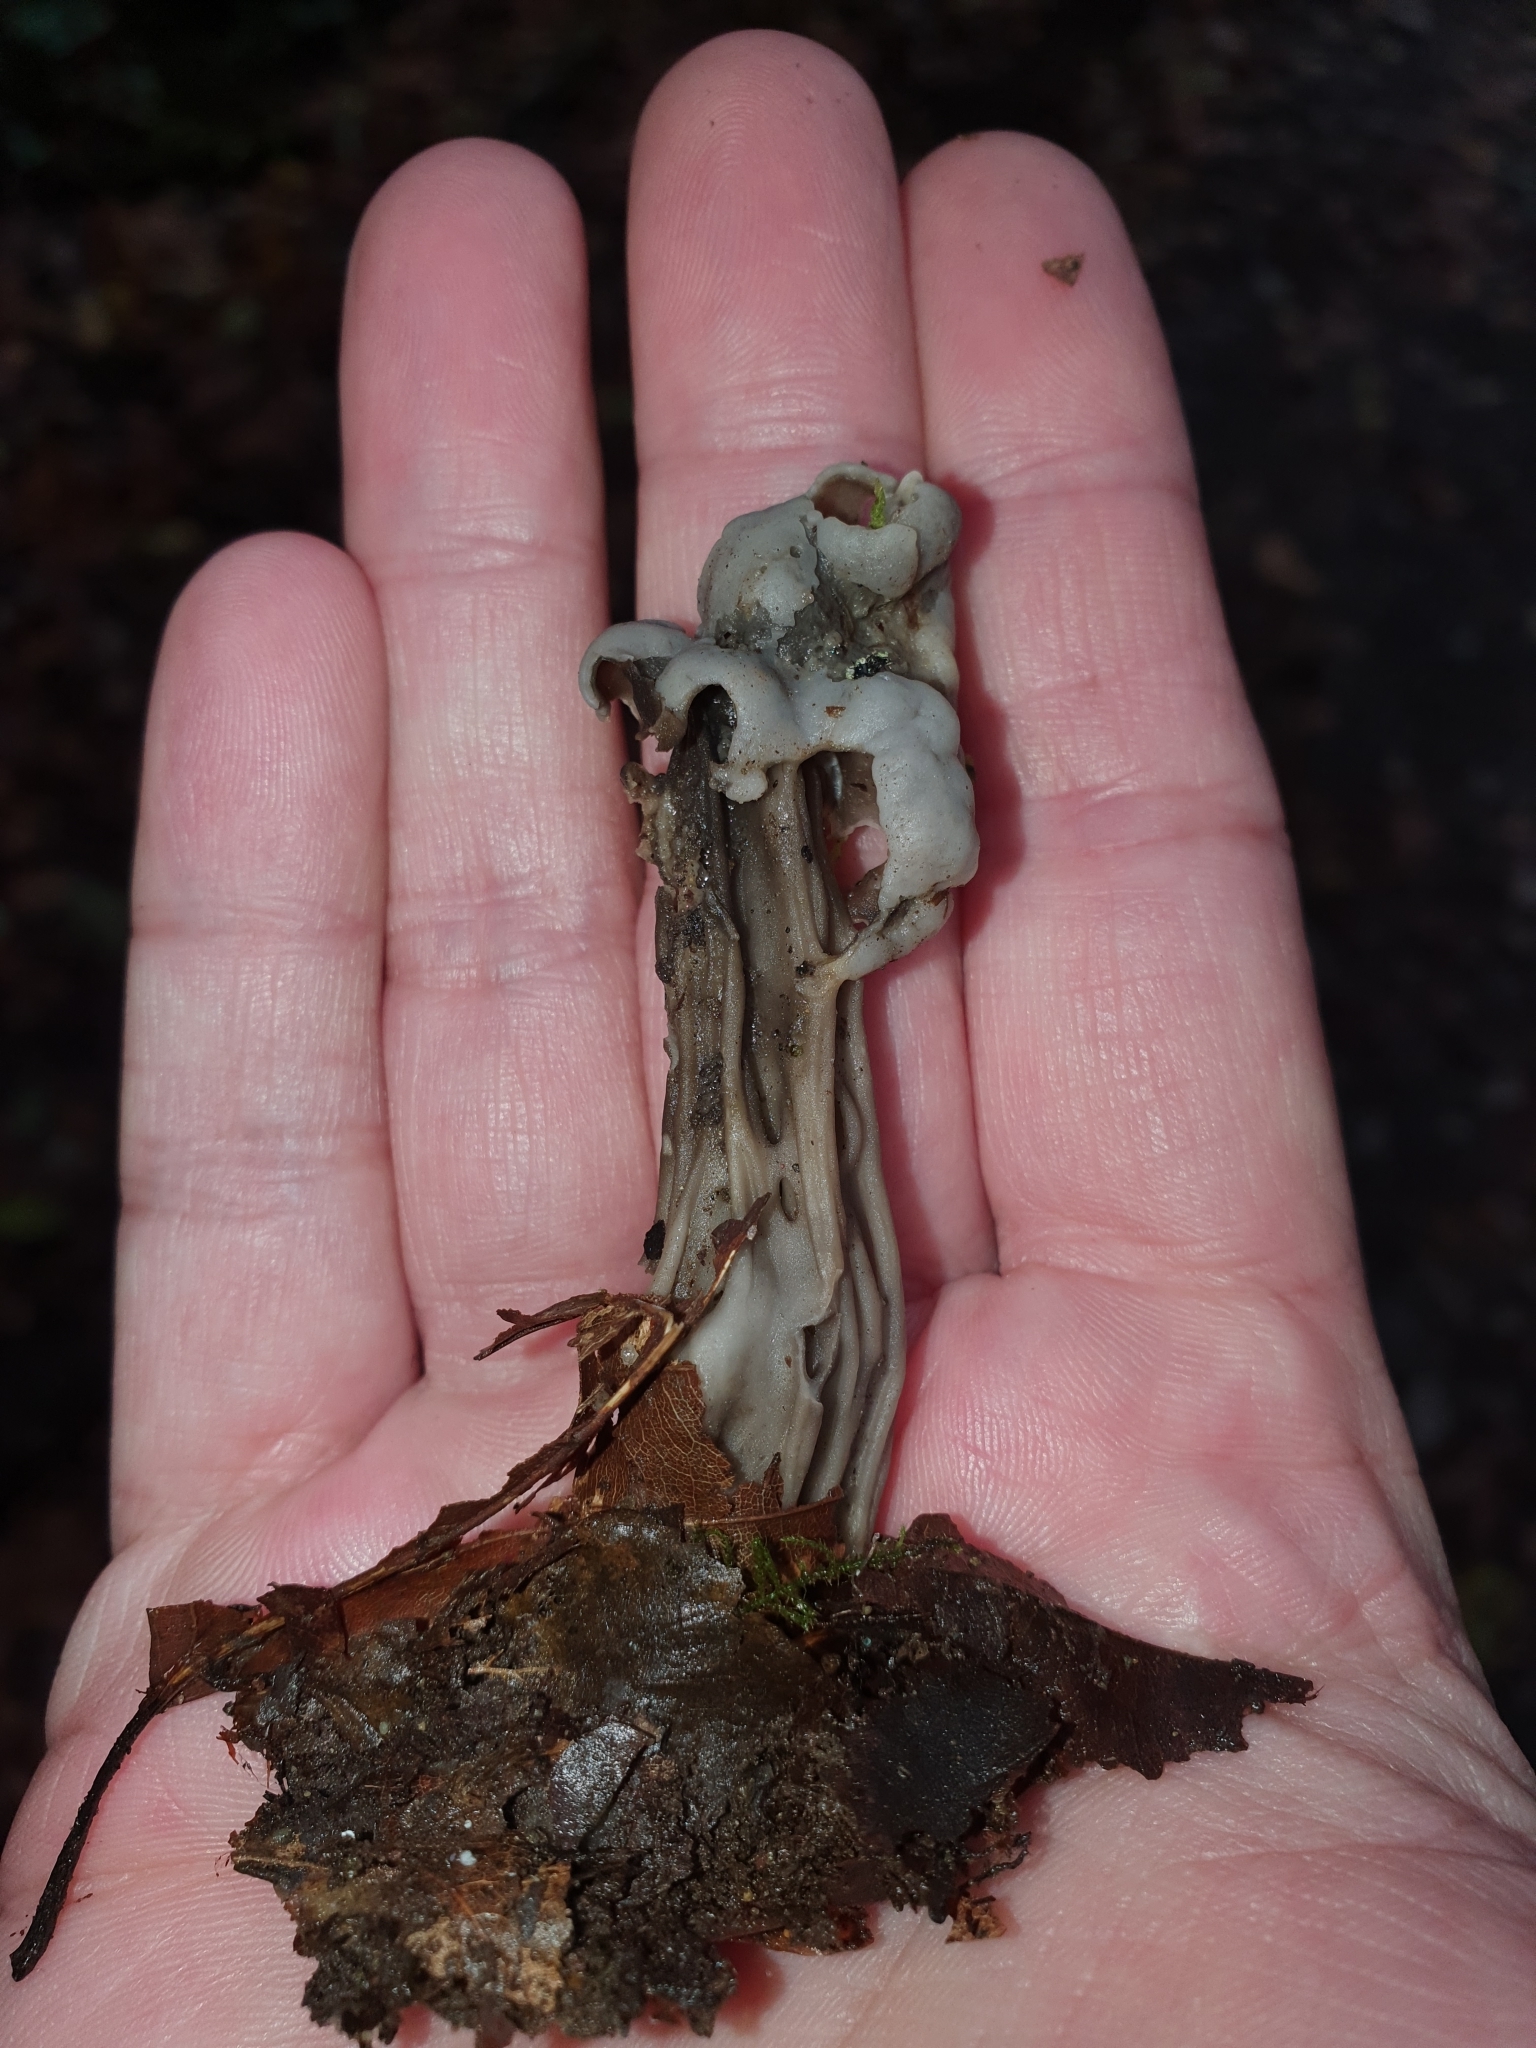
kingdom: Fungi
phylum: Ascomycota
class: Pezizomycetes
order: Pezizales
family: Helvellaceae
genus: Helvella
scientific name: Helvella lacunosa
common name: Elfin saddle
